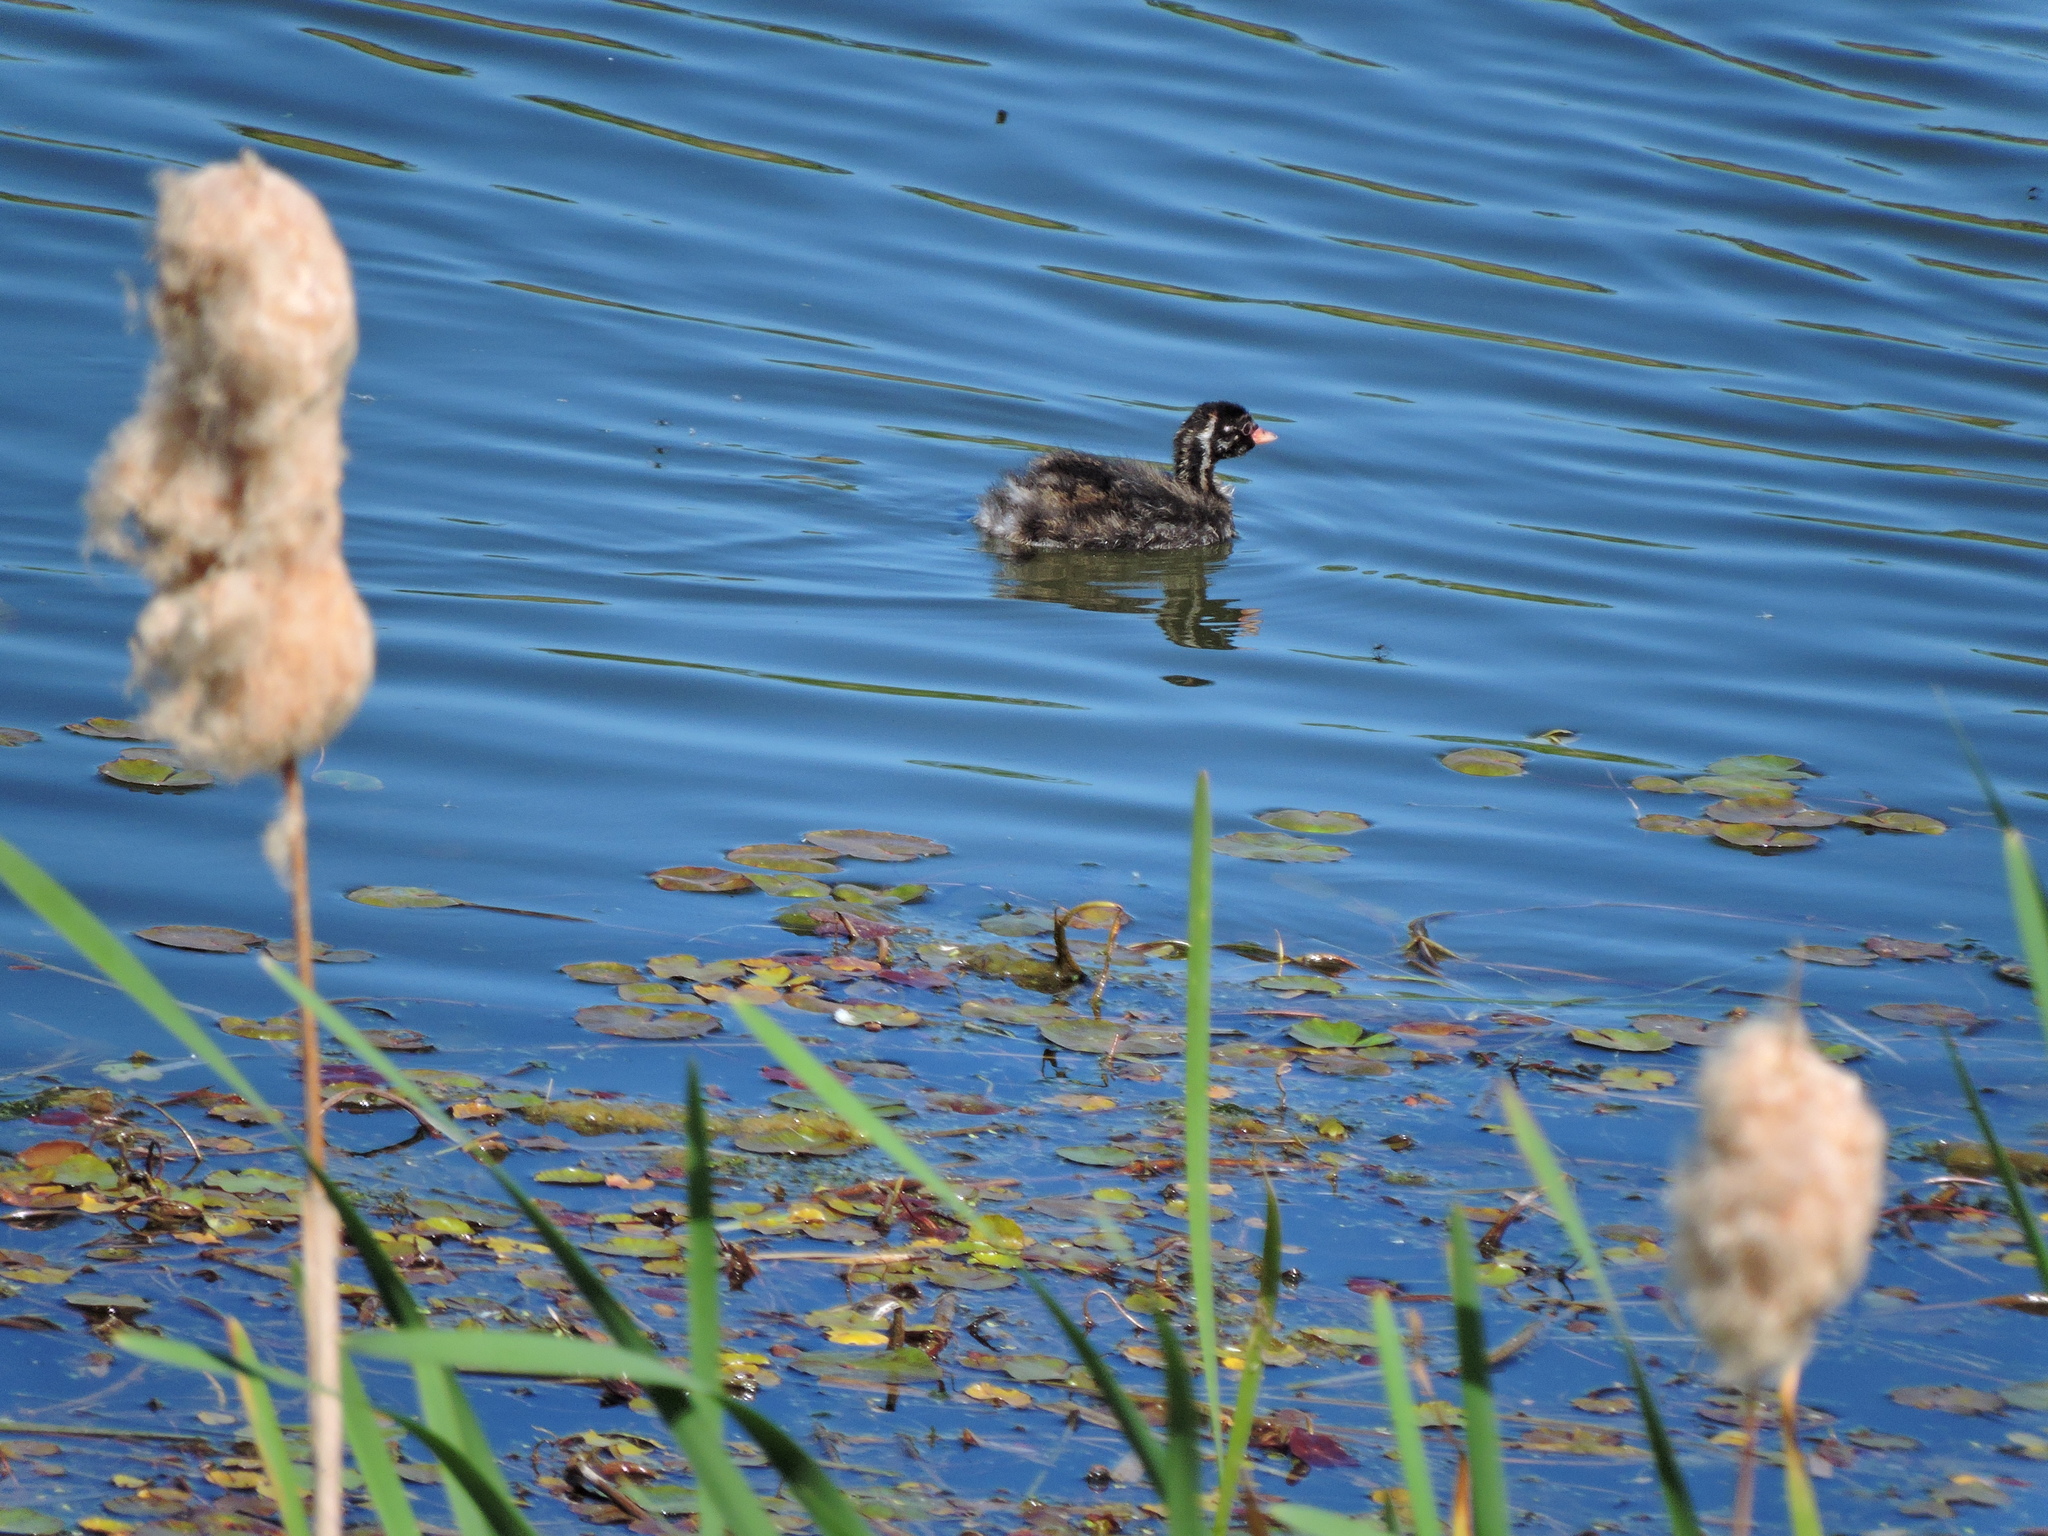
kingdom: Animalia
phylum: Chordata
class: Aves
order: Podicipediformes
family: Podicipedidae
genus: Tachybaptus
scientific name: Tachybaptus ruficollis
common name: Little grebe
